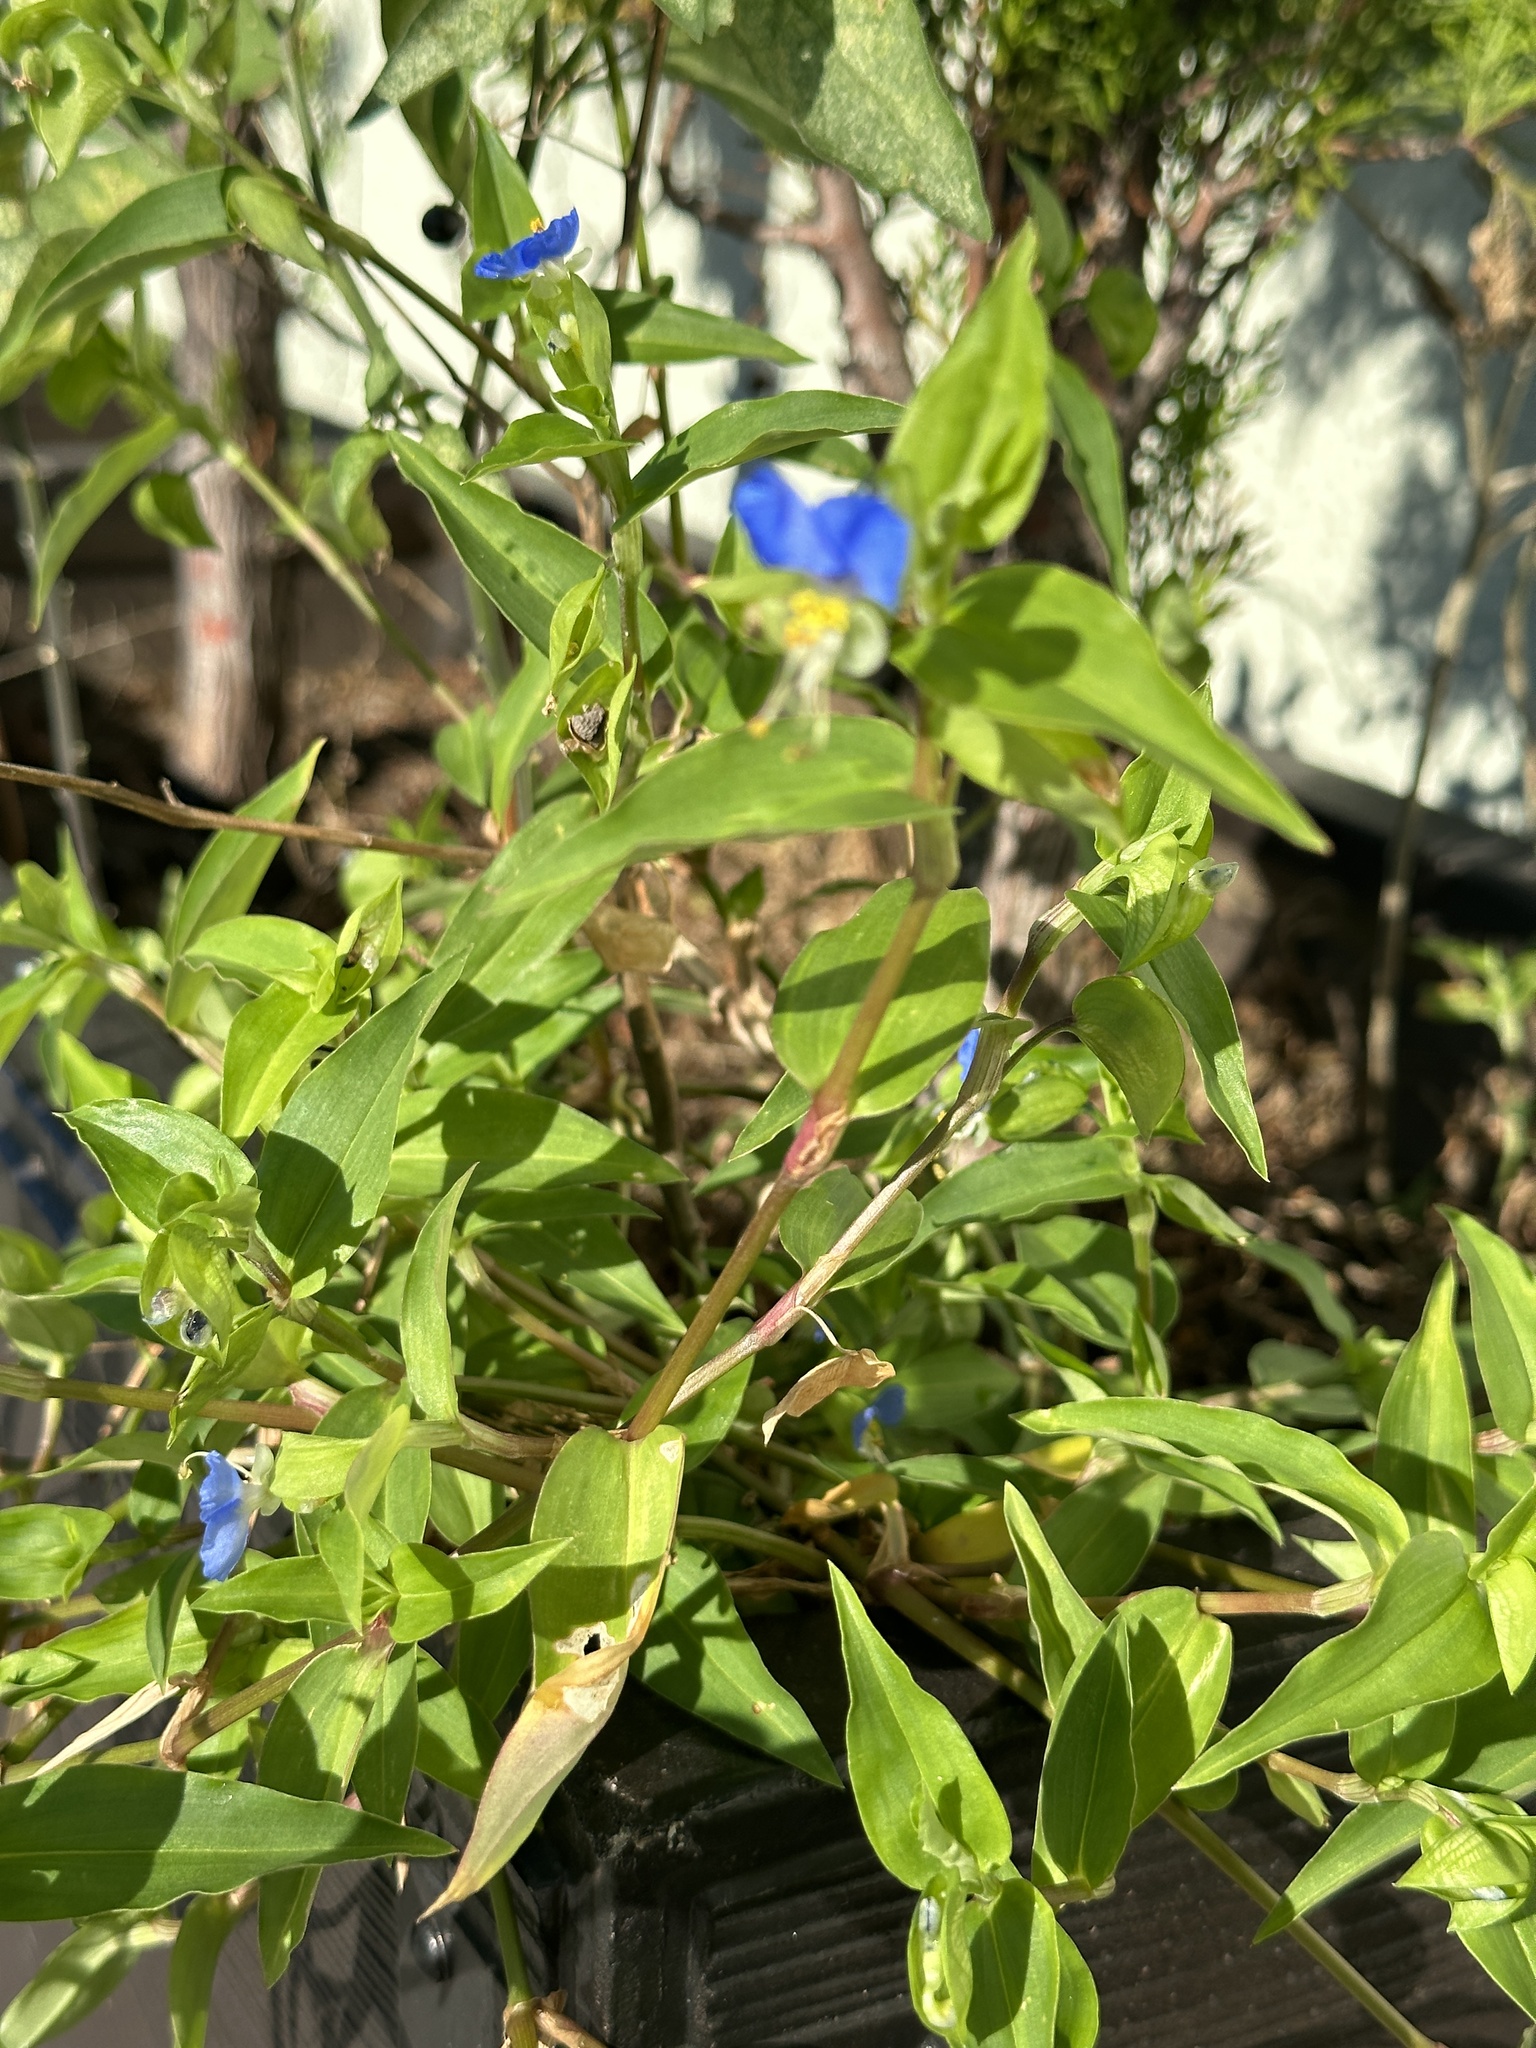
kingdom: Plantae
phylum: Tracheophyta
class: Liliopsida
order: Commelinales
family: Commelinaceae
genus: Commelina
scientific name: Commelina communis
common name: Asiatic dayflower
